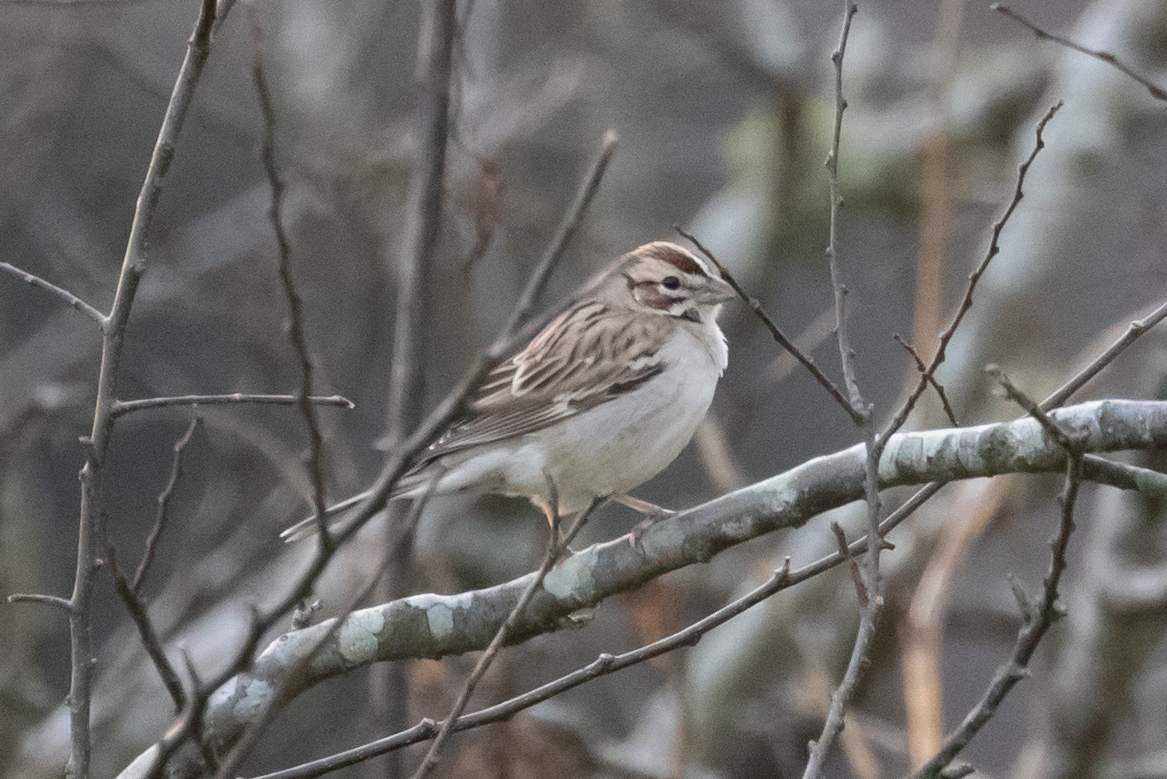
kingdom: Animalia
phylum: Chordata
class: Aves
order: Passeriformes
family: Passerellidae
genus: Chondestes
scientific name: Chondestes grammacus
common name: Lark sparrow
